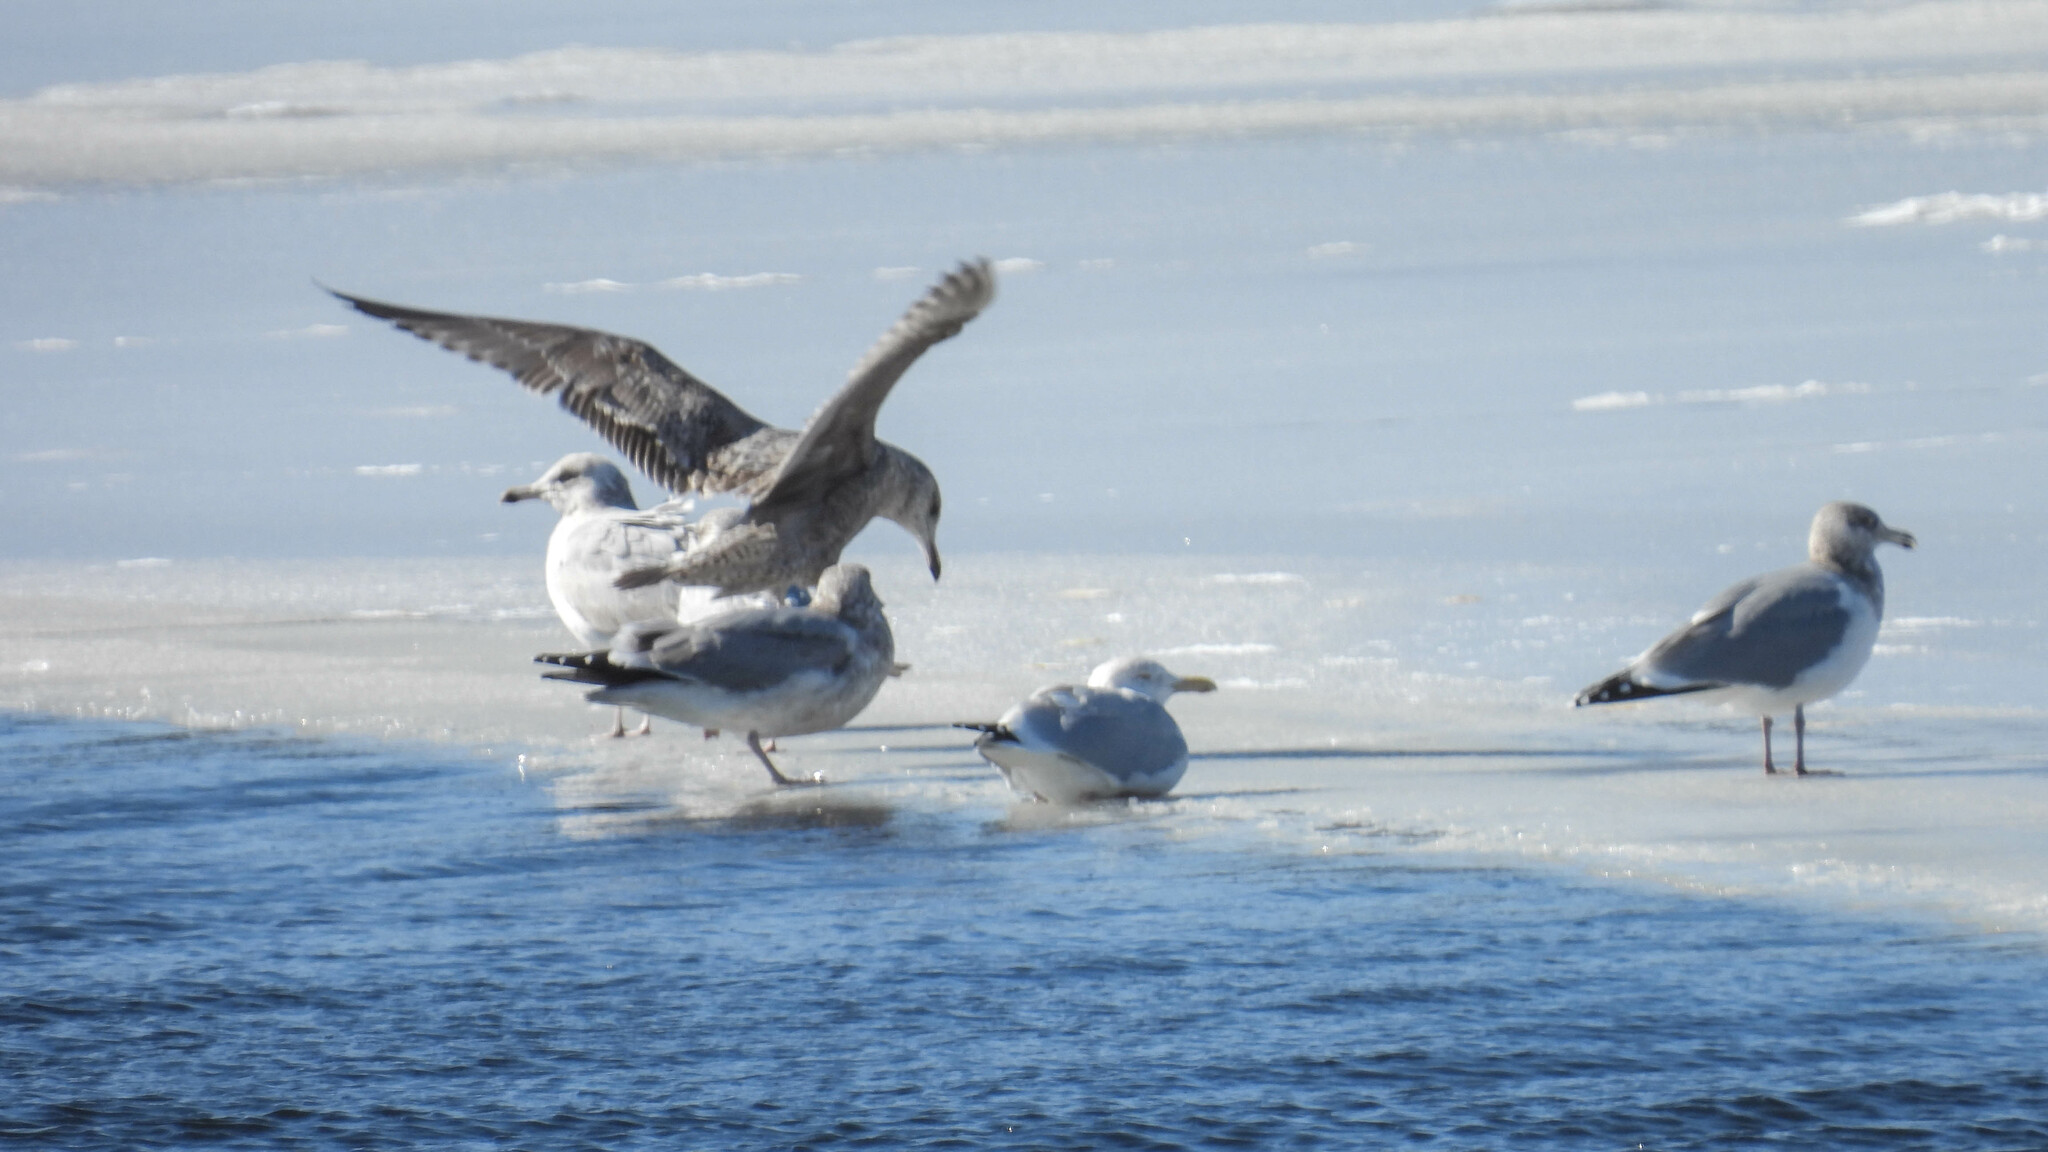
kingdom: Animalia
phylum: Chordata
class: Aves
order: Charadriiformes
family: Laridae
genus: Larus
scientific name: Larus argentatus
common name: Herring gull
